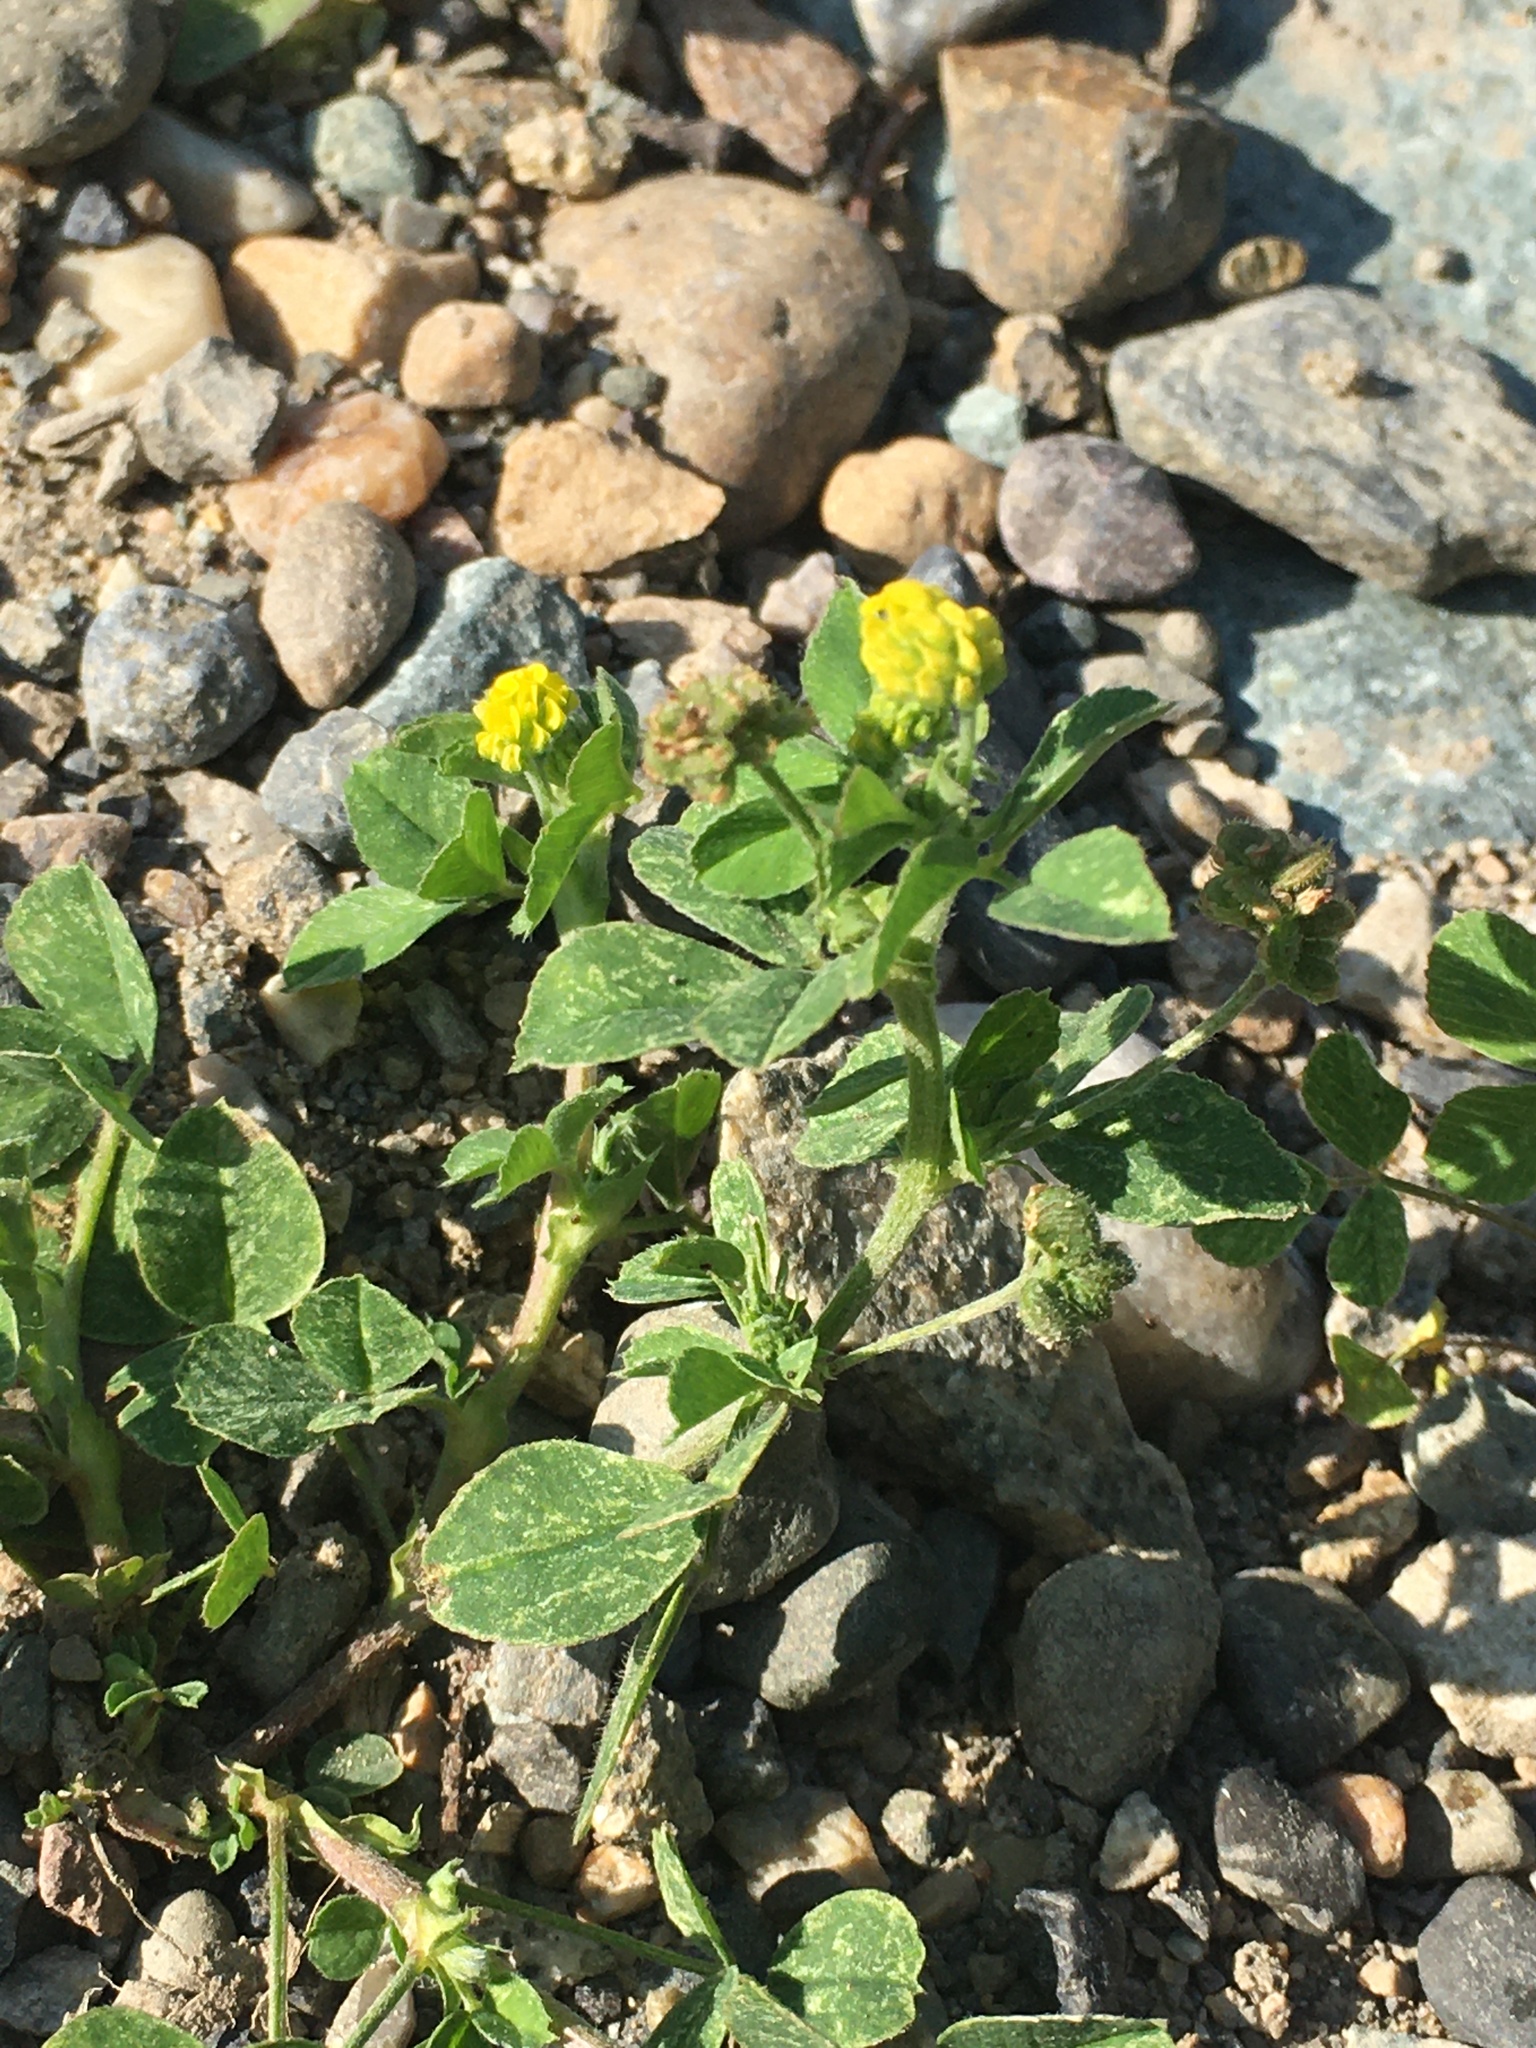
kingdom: Plantae
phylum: Tracheophyta
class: Magnoliopsida
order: Fabales
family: Fabaceae
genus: Medicago
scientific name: Medicago lupulina
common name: Black medick
